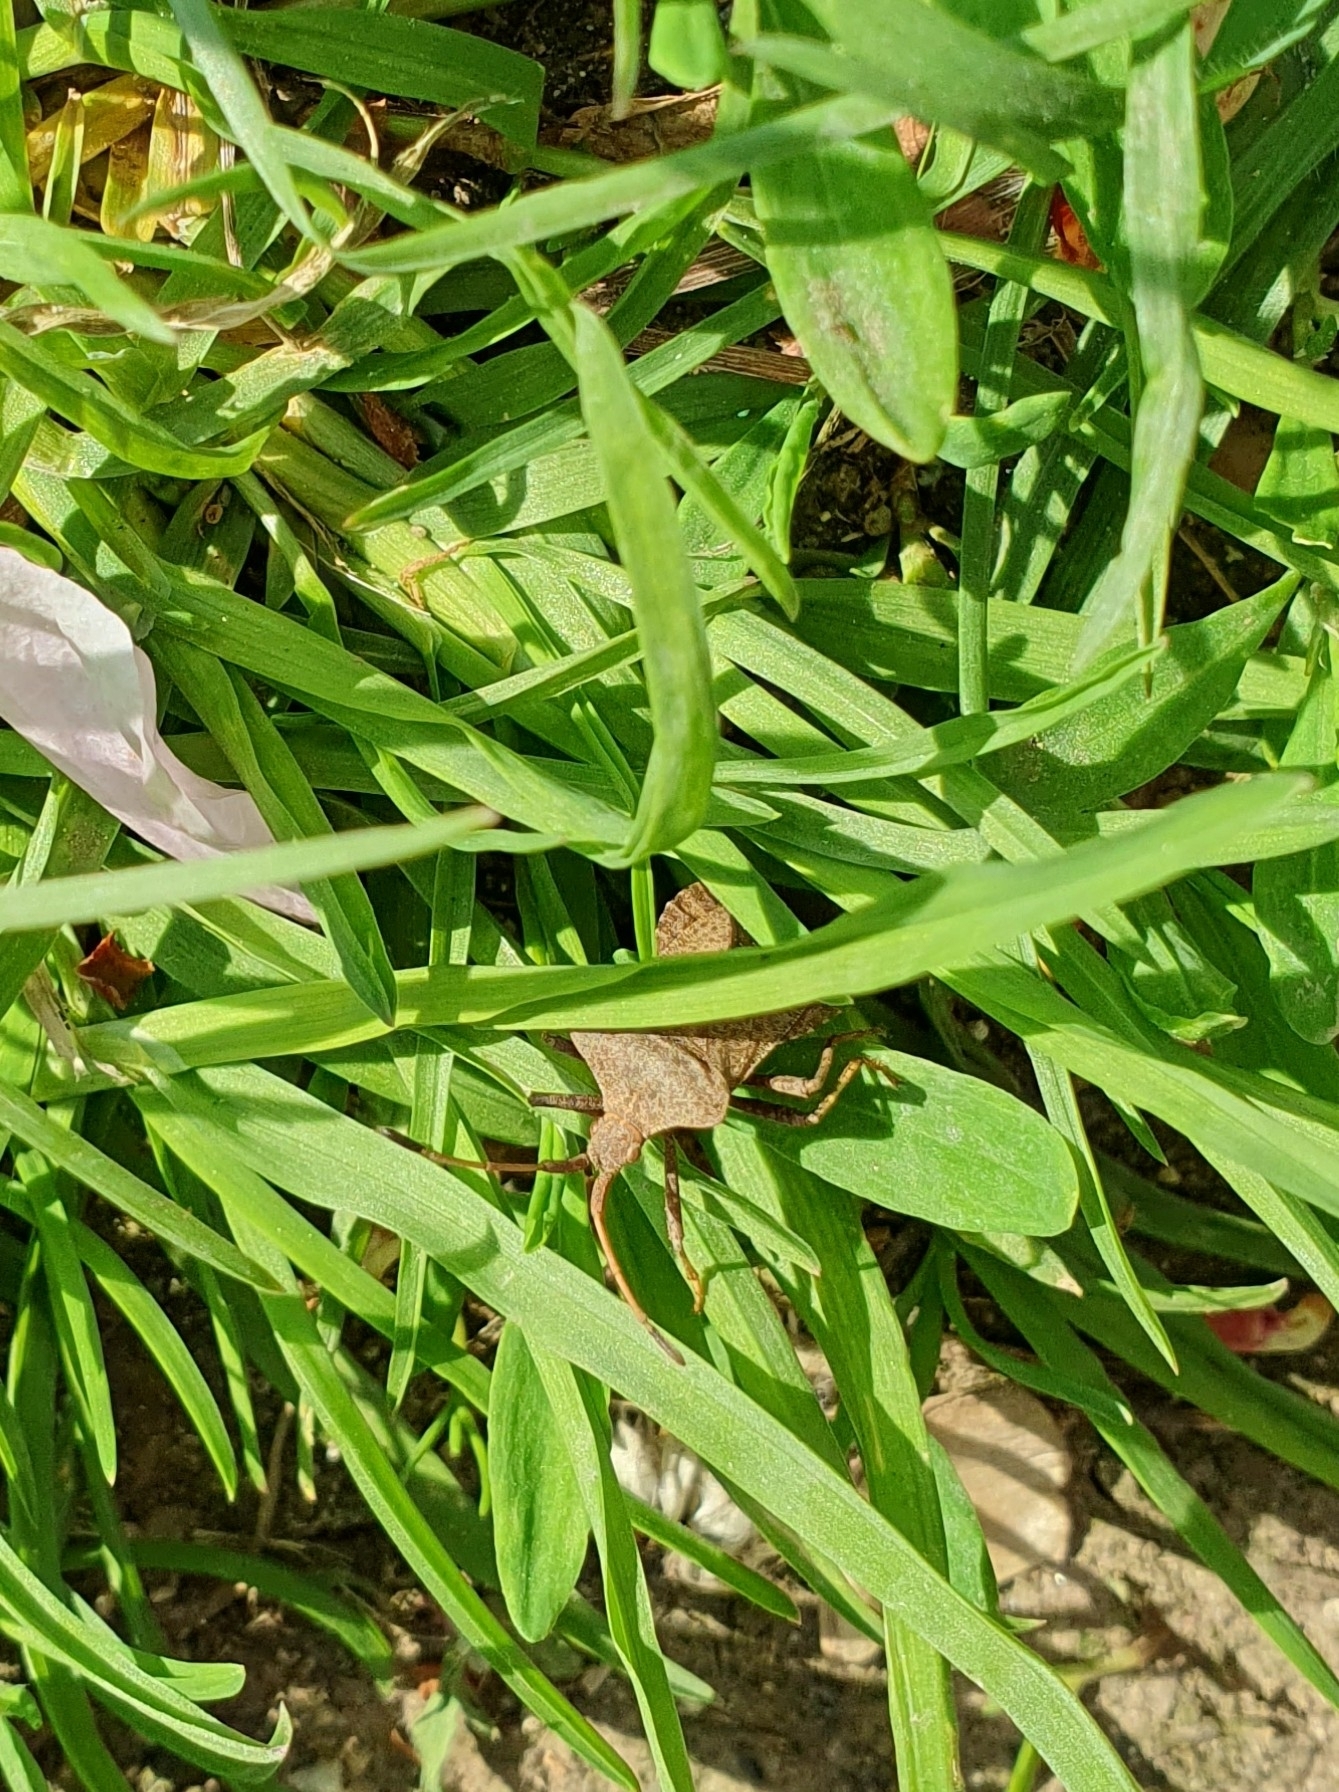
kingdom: Animalia
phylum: Arthropoda
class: Insecta
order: Hemiptera
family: Coreidae
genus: Coreus
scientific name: Coreus marginatus
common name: Dock bug
